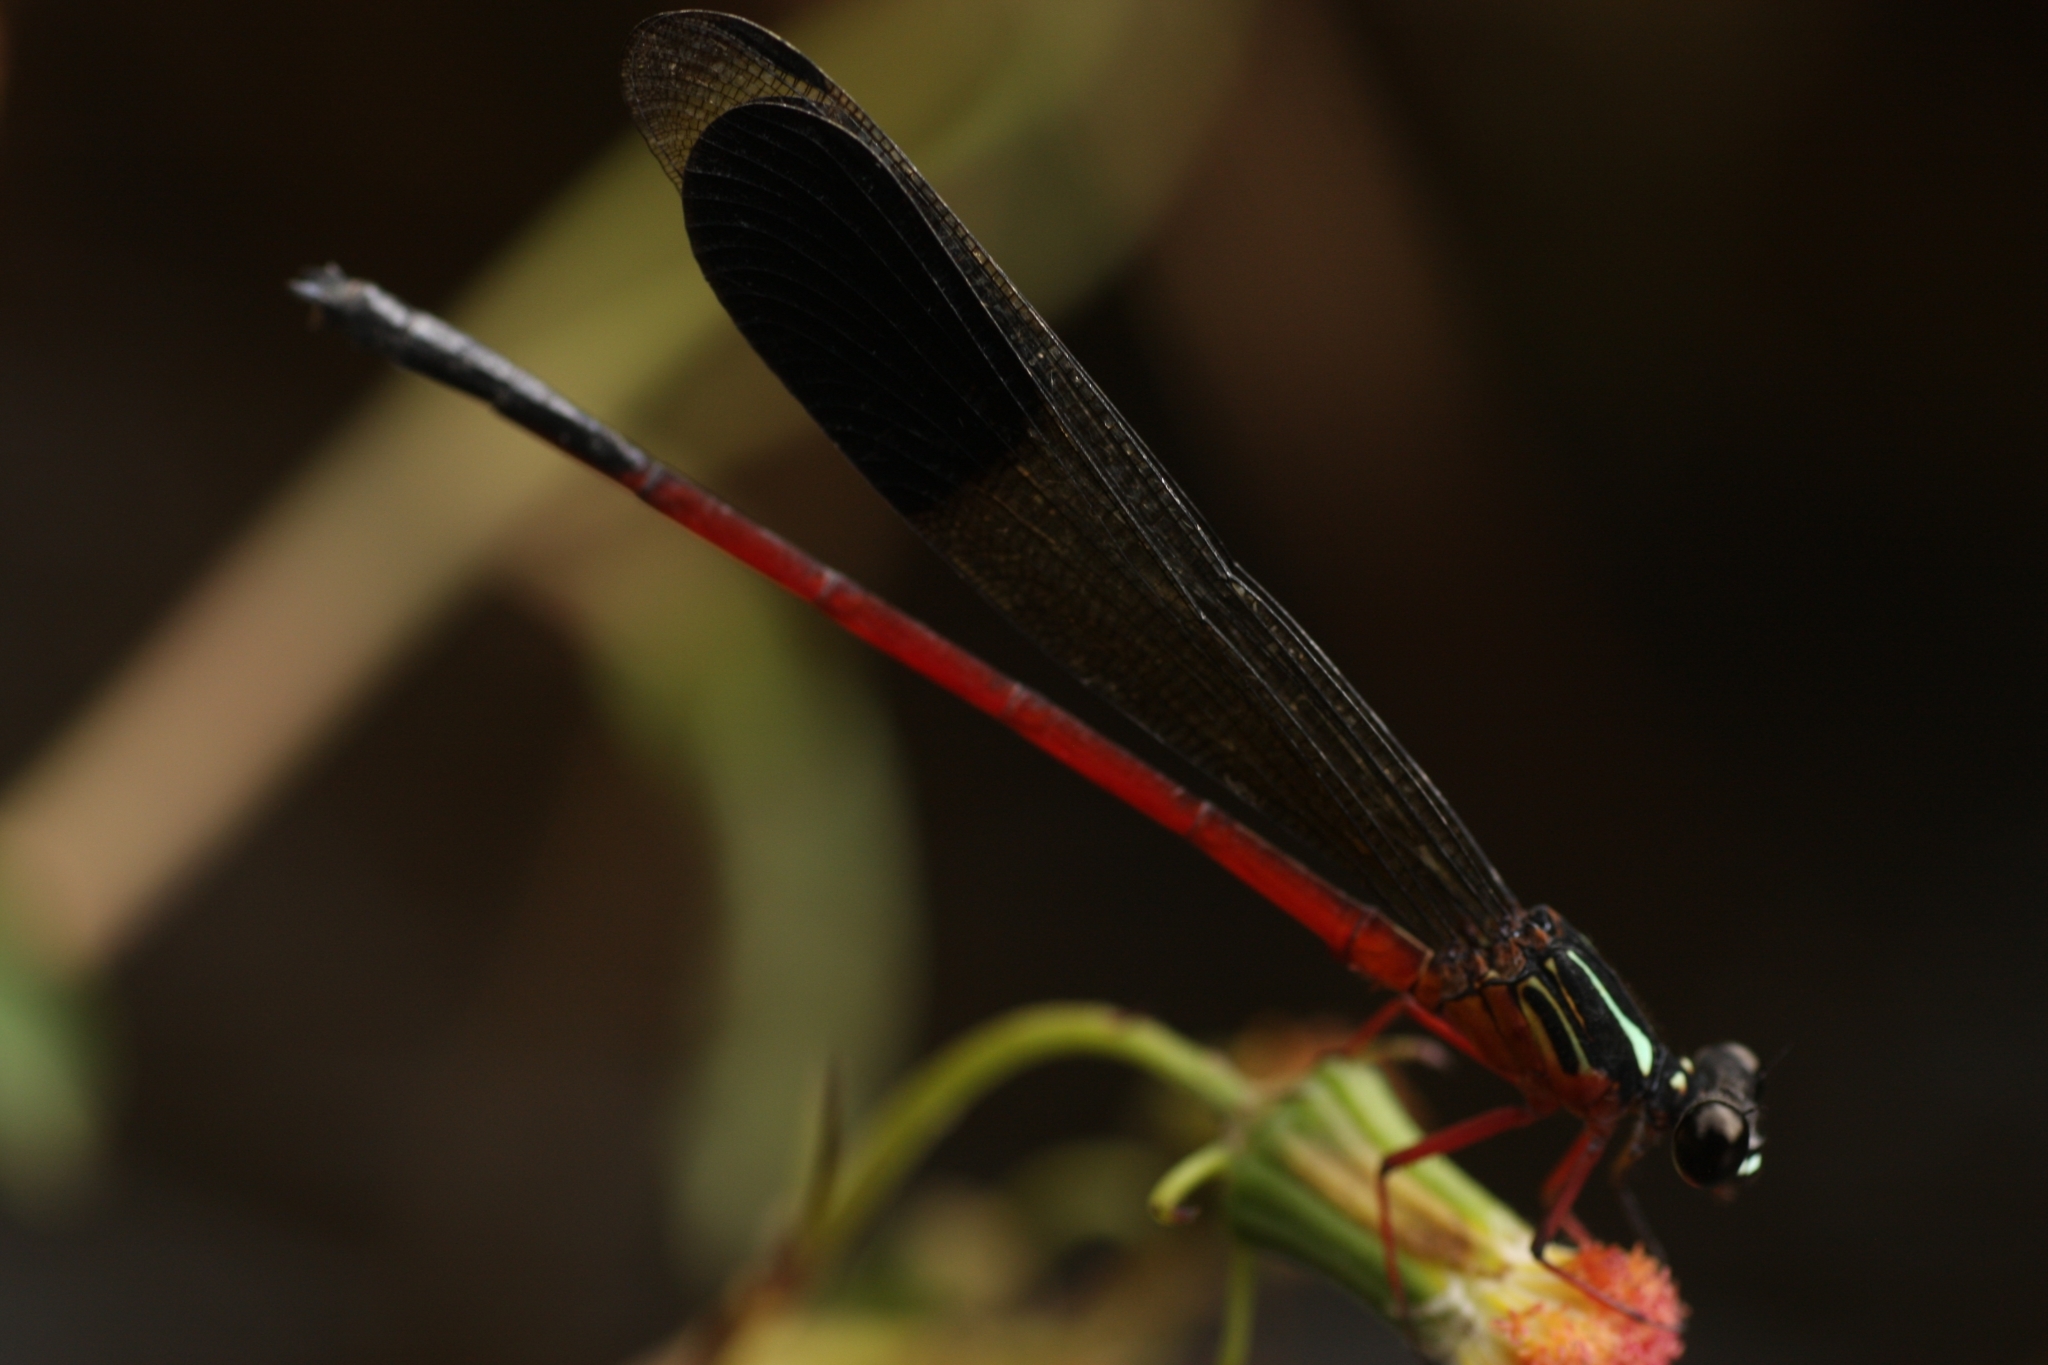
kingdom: Animalia
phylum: Arthropoda
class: Insecta
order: Odonata
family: Euphaeidae
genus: Euphaea
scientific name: Euphaea fraseri
